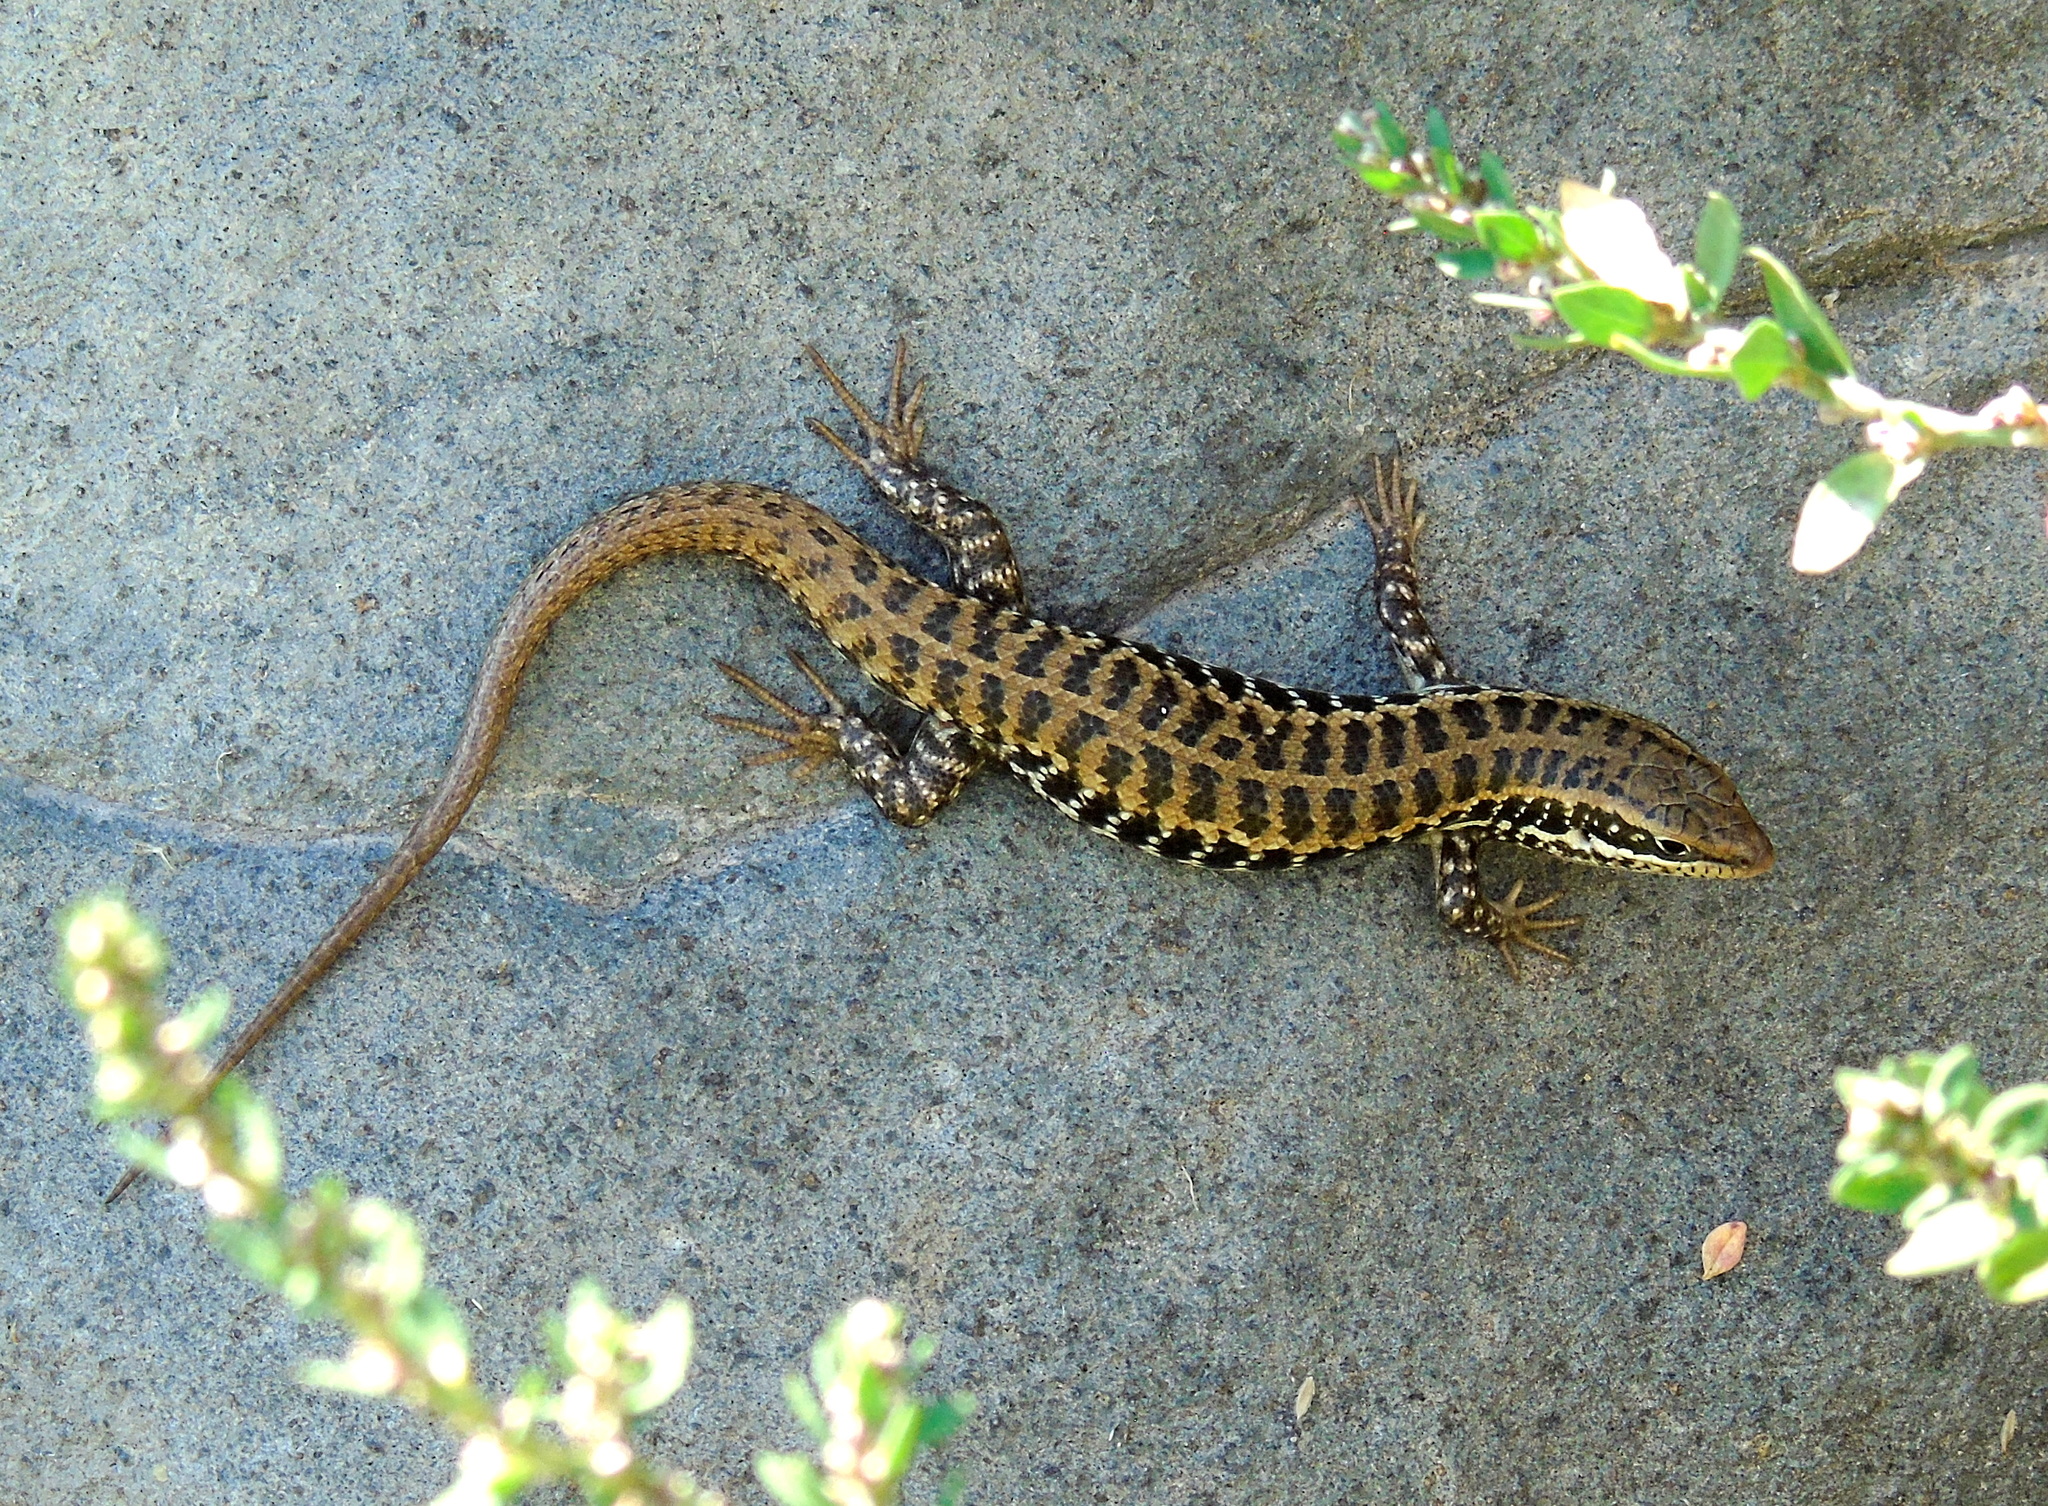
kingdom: Animalia
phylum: Chordata
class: Squamata
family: Scincidae
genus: Heremites
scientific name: Heremites auratus
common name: Golden grass mabuya
